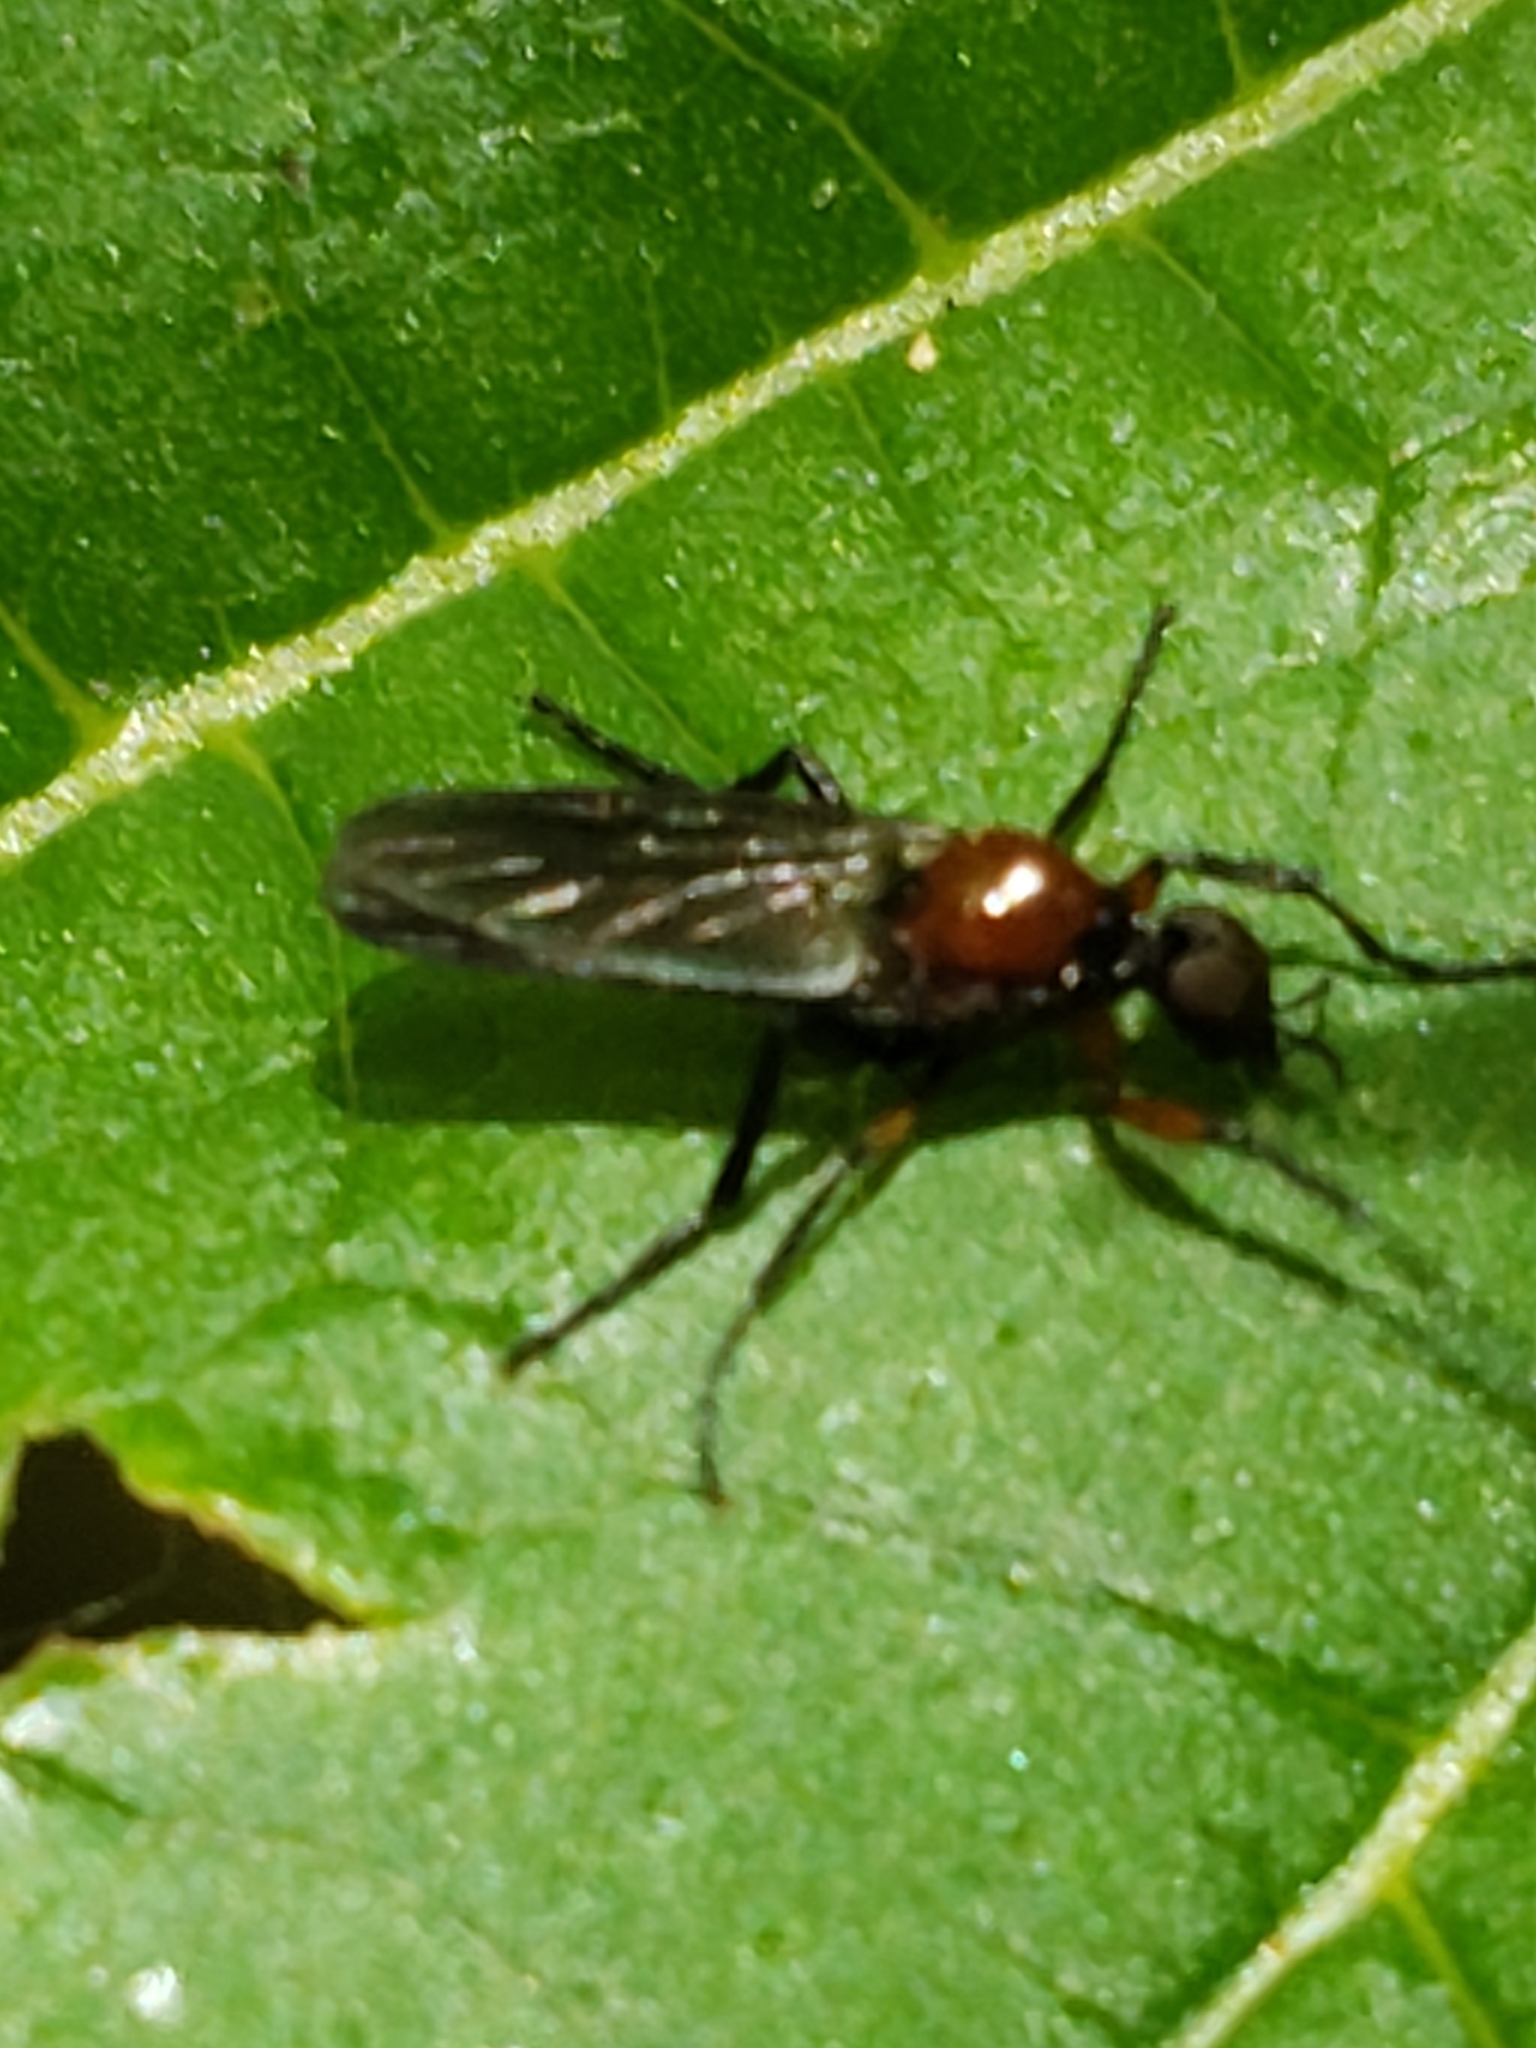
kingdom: Animalia
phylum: Arthropoda
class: Insecta
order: Diptera
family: Bibionidae
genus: Dilophus
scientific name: Dilophus spinipes
